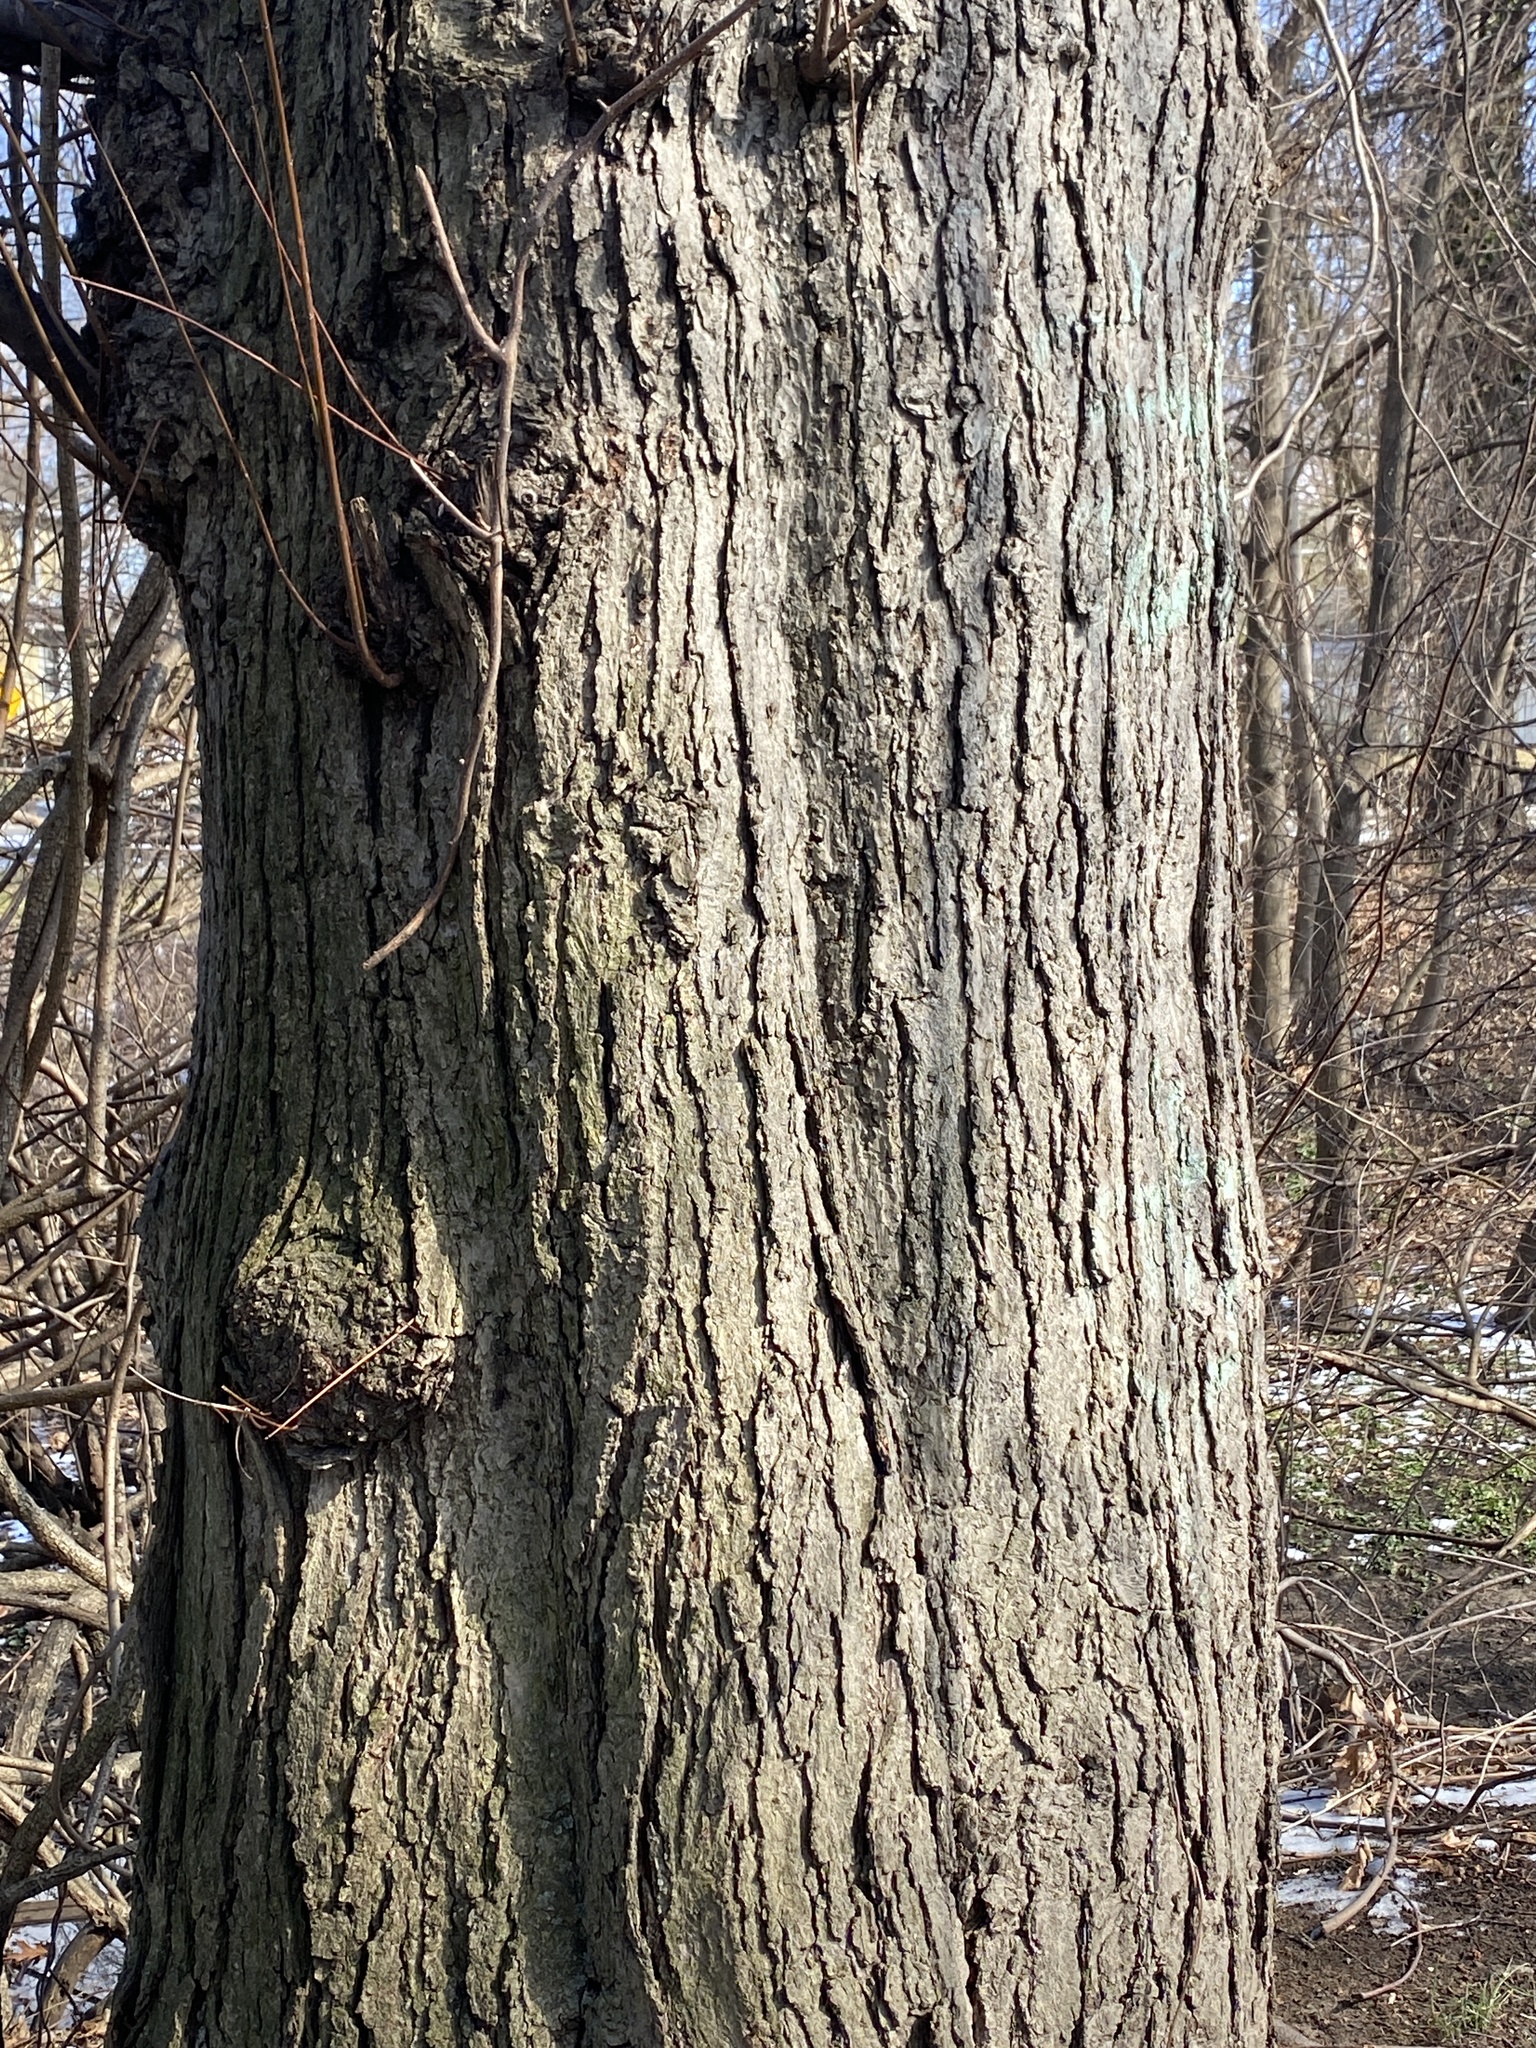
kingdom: Plantae
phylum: Tracheophyta
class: Magnoliopsida
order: Sapindales
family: Sapindaceae
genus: Acer
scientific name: Acer rubrum
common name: Red maple
